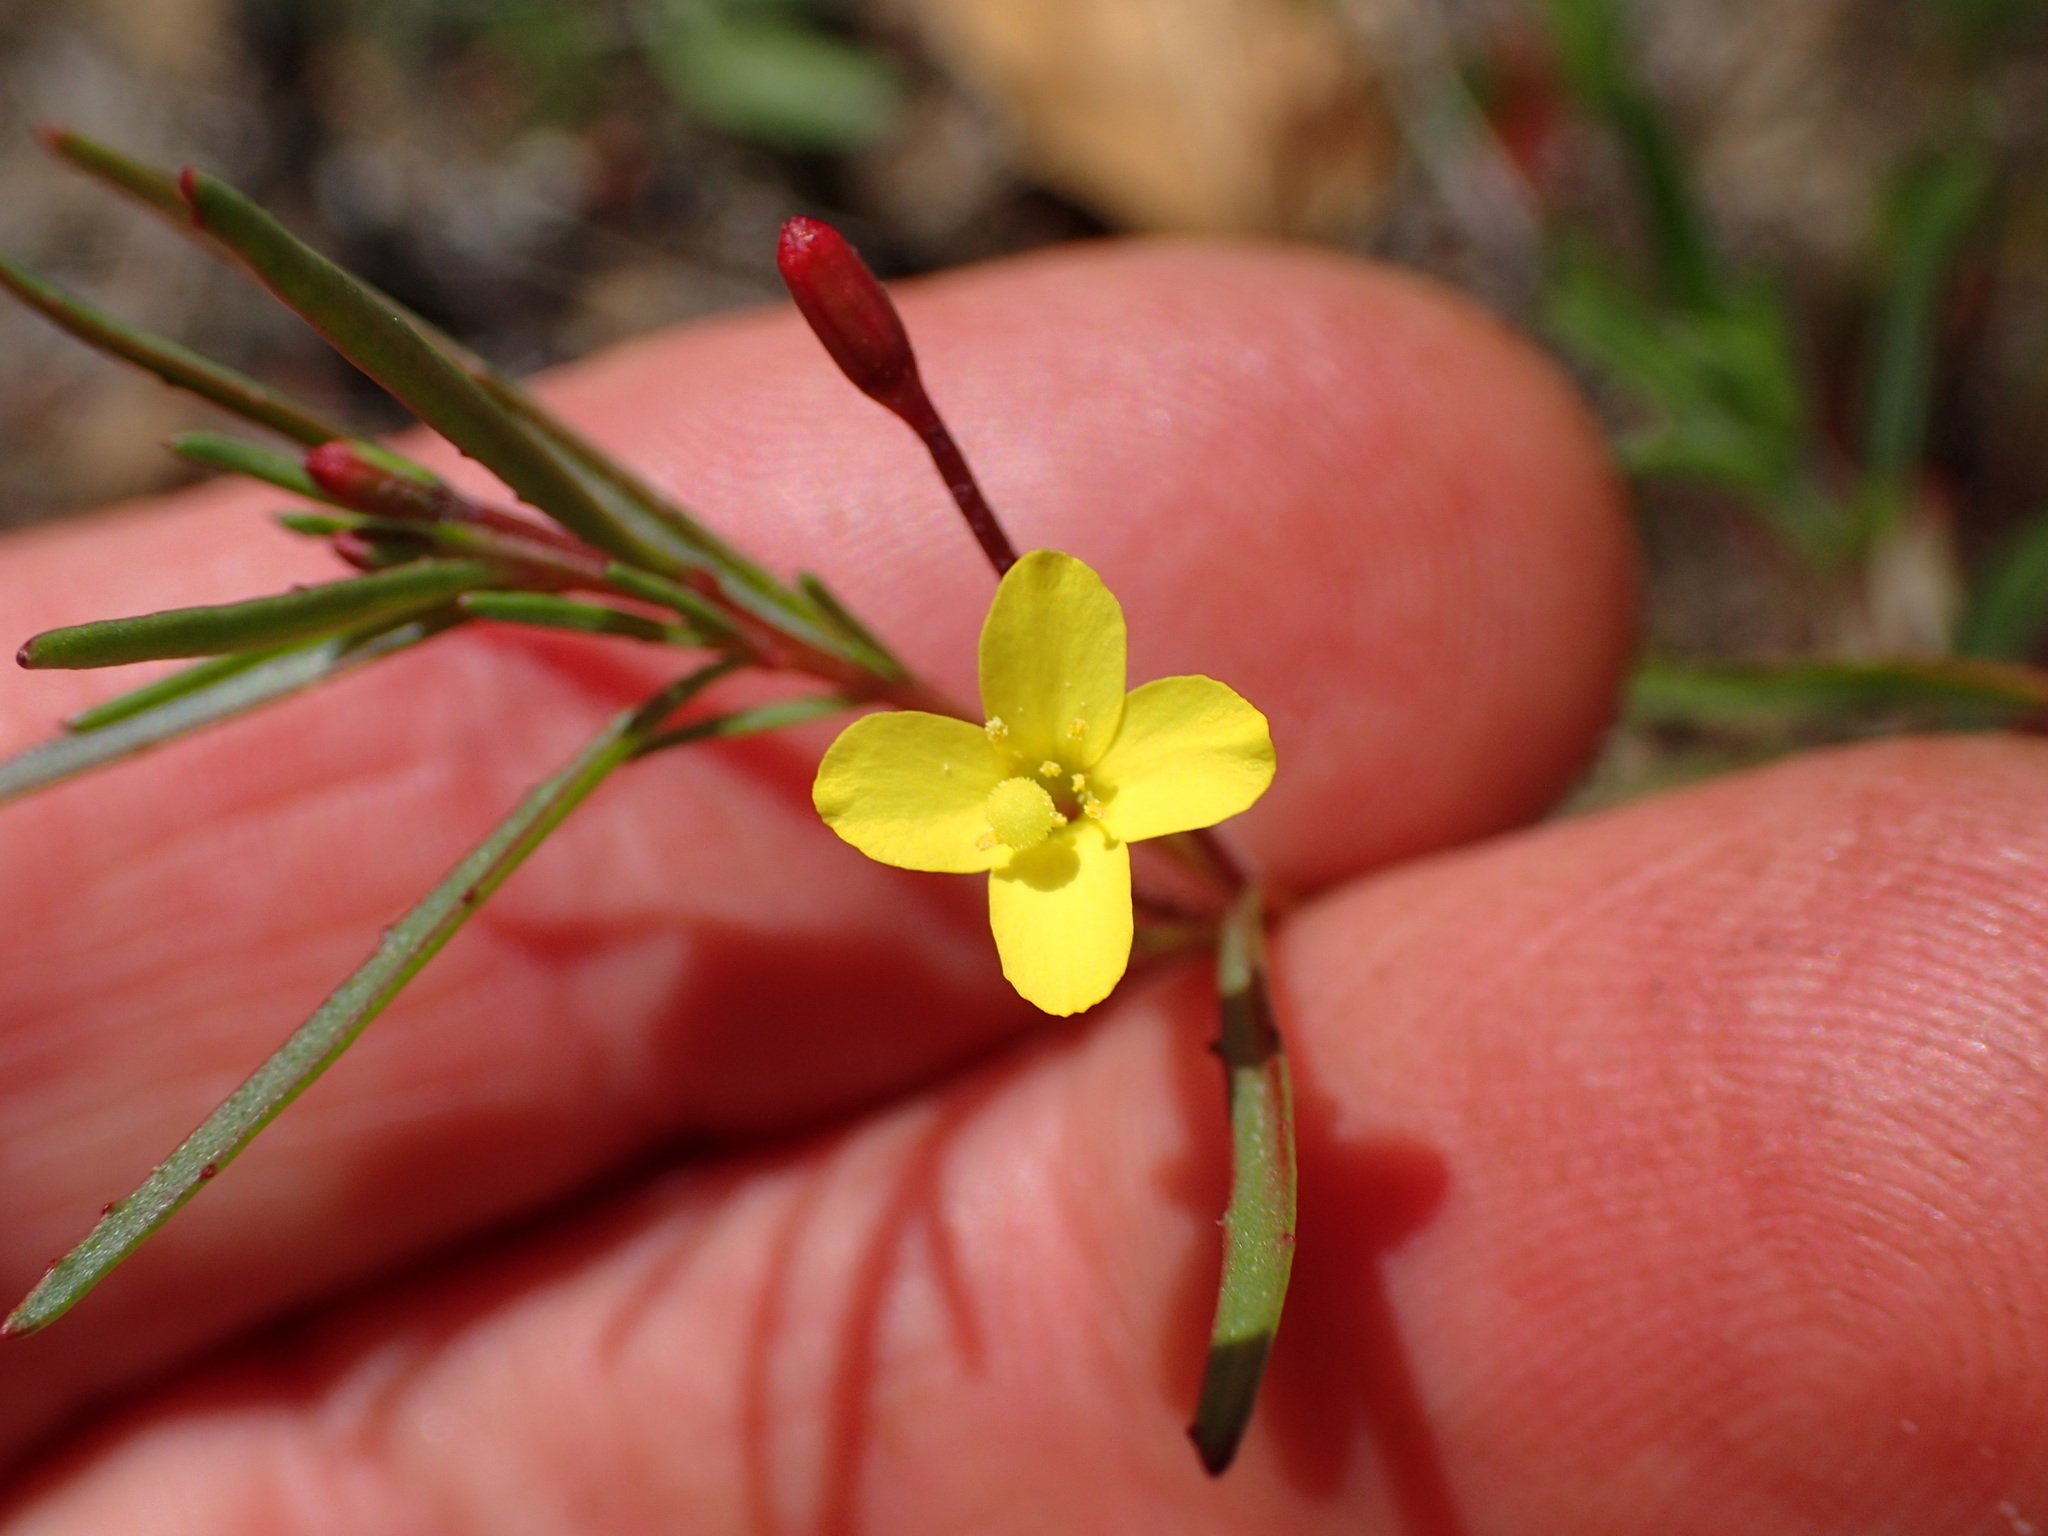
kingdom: Plantae
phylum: Tracheophyta
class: Magnoliopsida
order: Myrtales
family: Onagraceae
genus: Camissonia
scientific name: Camissonia strigulosa
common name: Contorted-primrose
